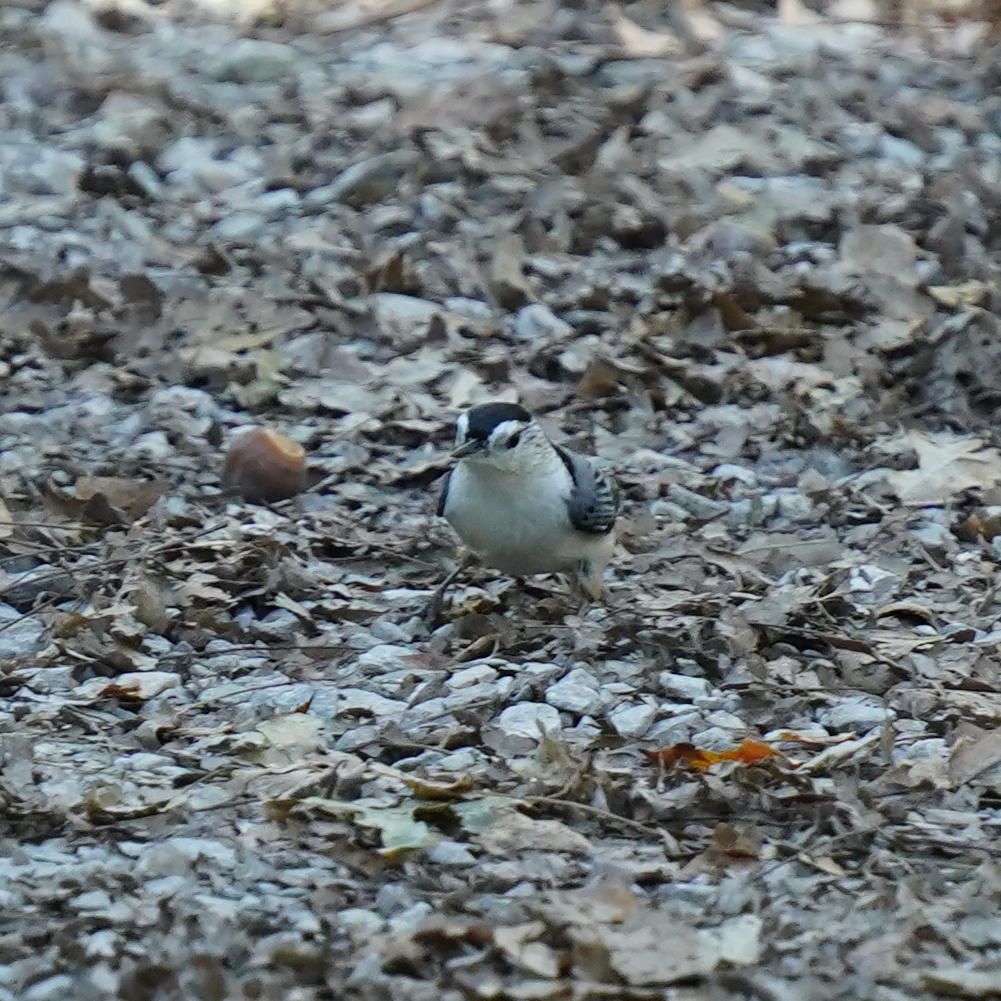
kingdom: Animalia
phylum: Chordata
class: Aves
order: Passeriformes
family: Sittidae
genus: Sitta
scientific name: Sitta carolinensis
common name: White-breasted nuthatch
